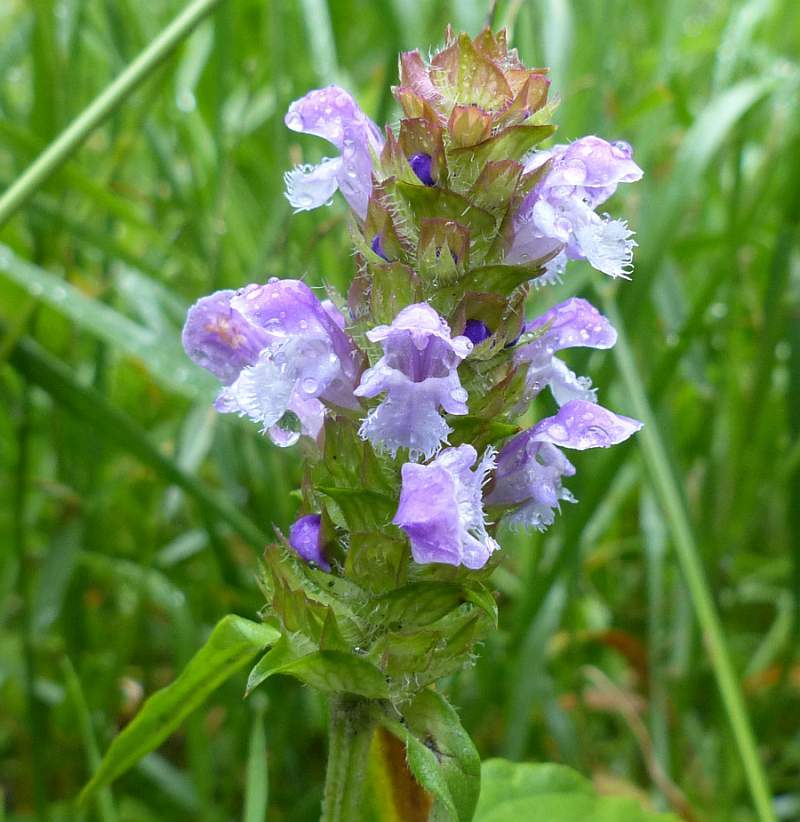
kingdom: Plantae
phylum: Tracheophyta
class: Magnoliopsida
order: Lamiales
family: Lamiaceae
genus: Prunella
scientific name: Prunella vulgaris
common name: Heal-all
